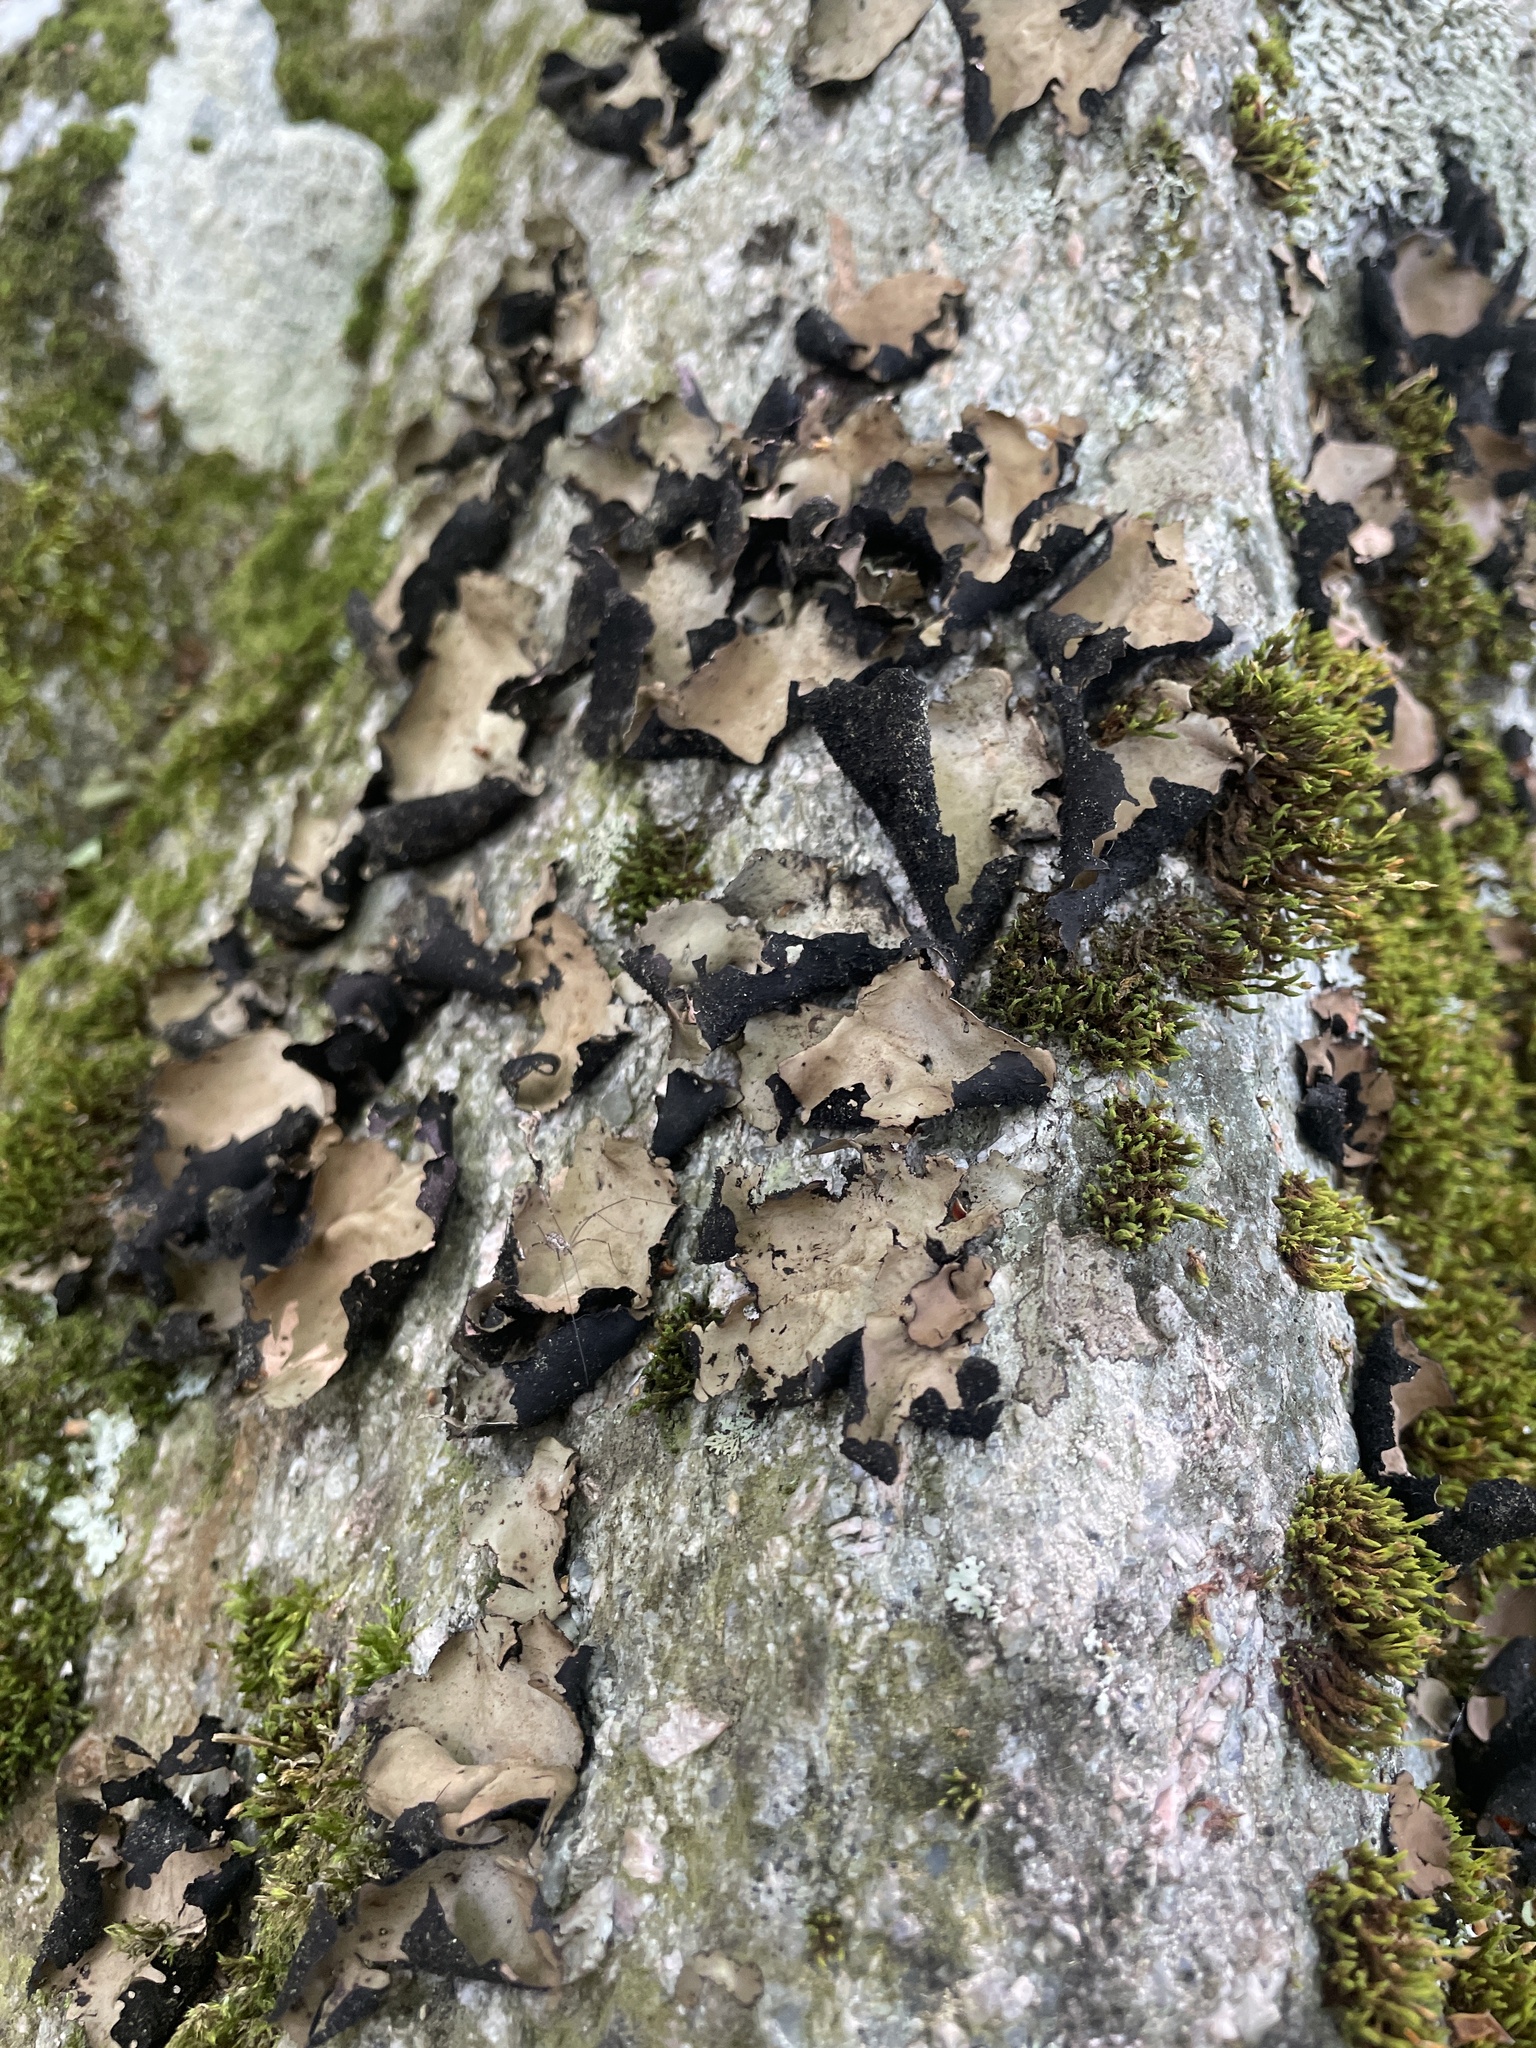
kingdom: Fungi
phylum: Ascomycota
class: Lecanoromycetes
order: Umbilicariales
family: Umbilicariaceae
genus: Umbilicaria
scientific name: Umbilicaria mammulata
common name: Smooth rock tripe
